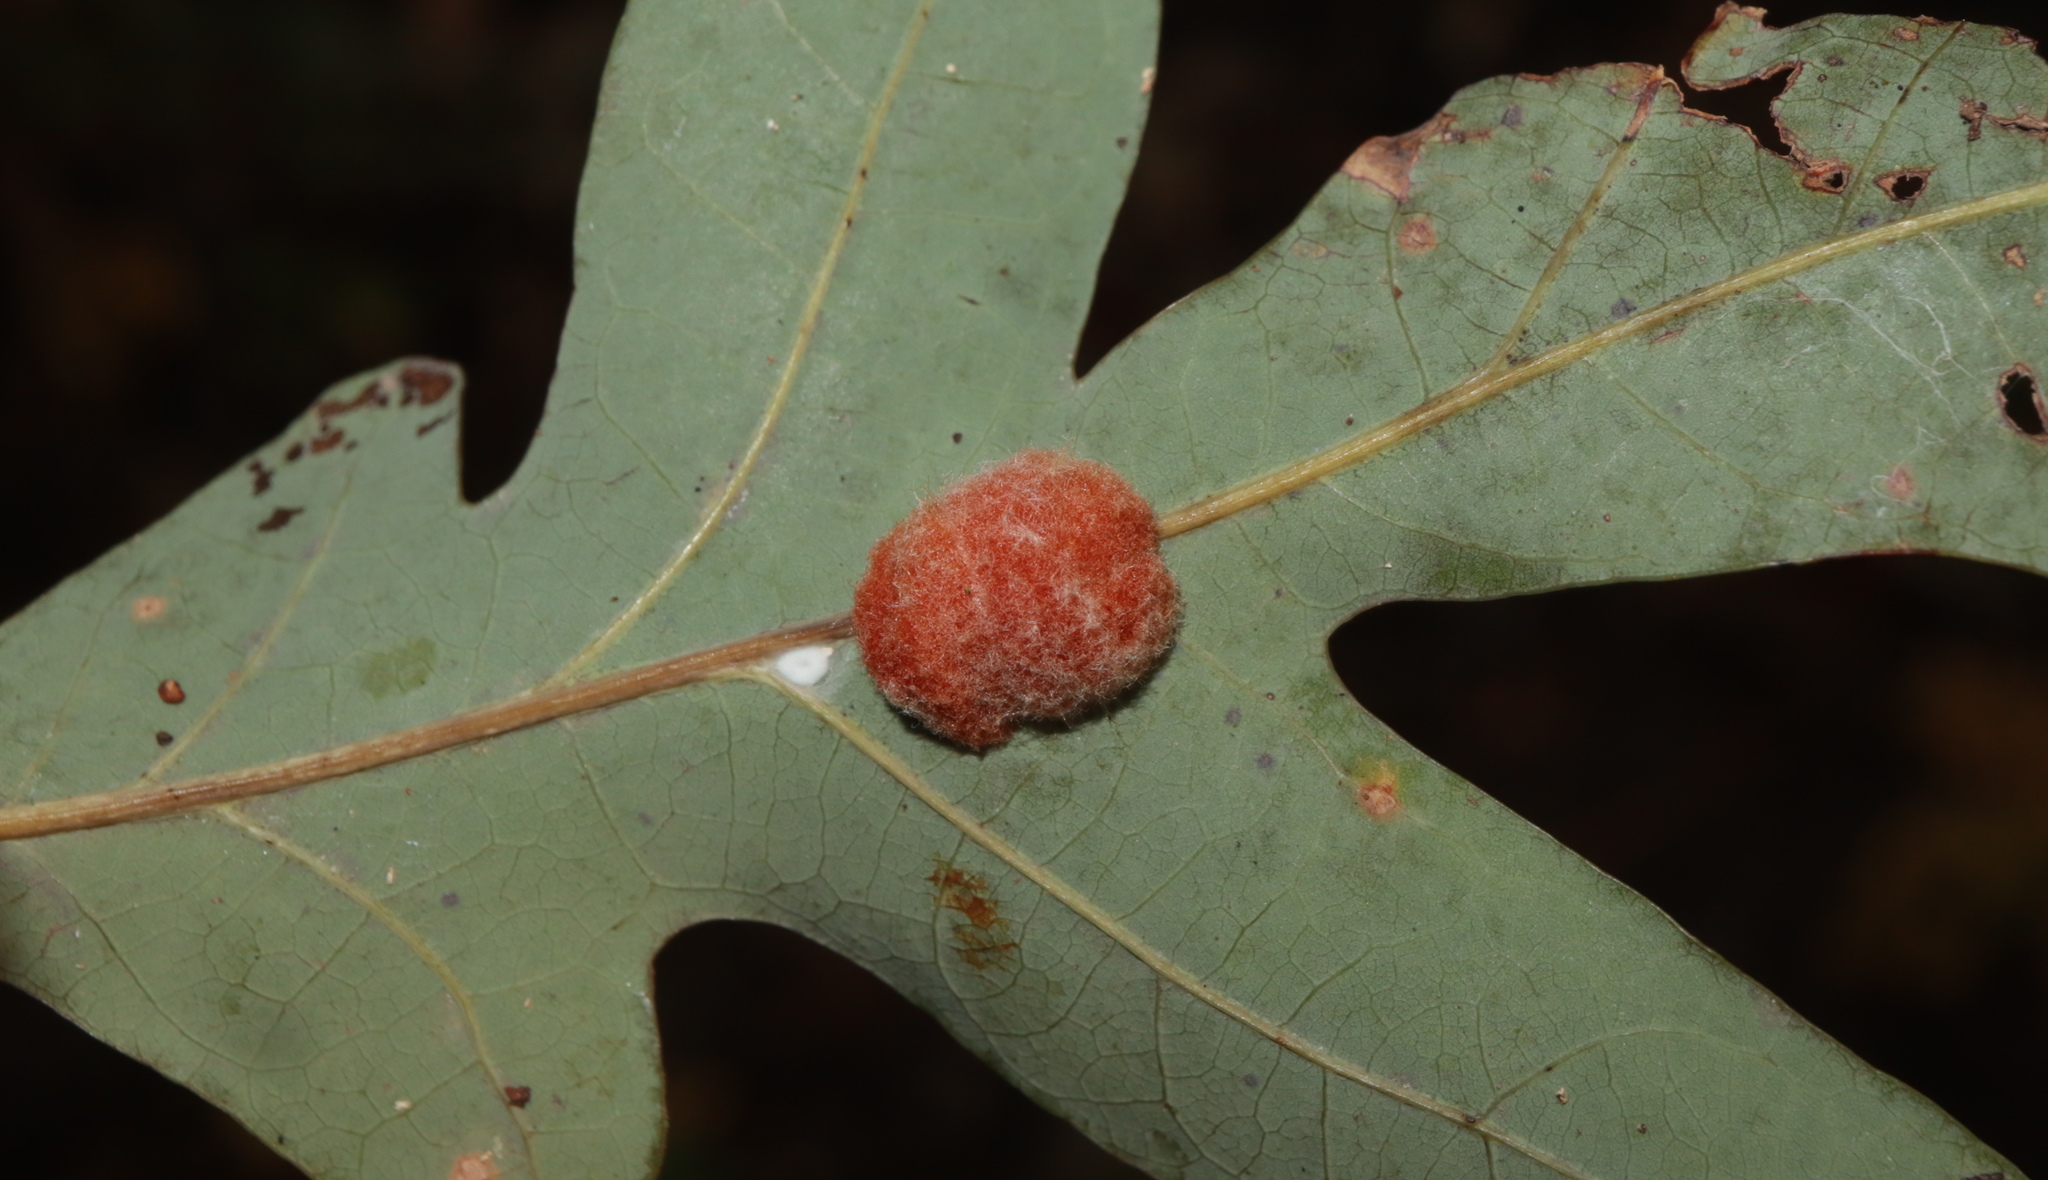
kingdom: Animalia
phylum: Arthropoda
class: Insecta
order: Hymenoptera
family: Cynipidae
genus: Andricus
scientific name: Andricus quercusflocci
